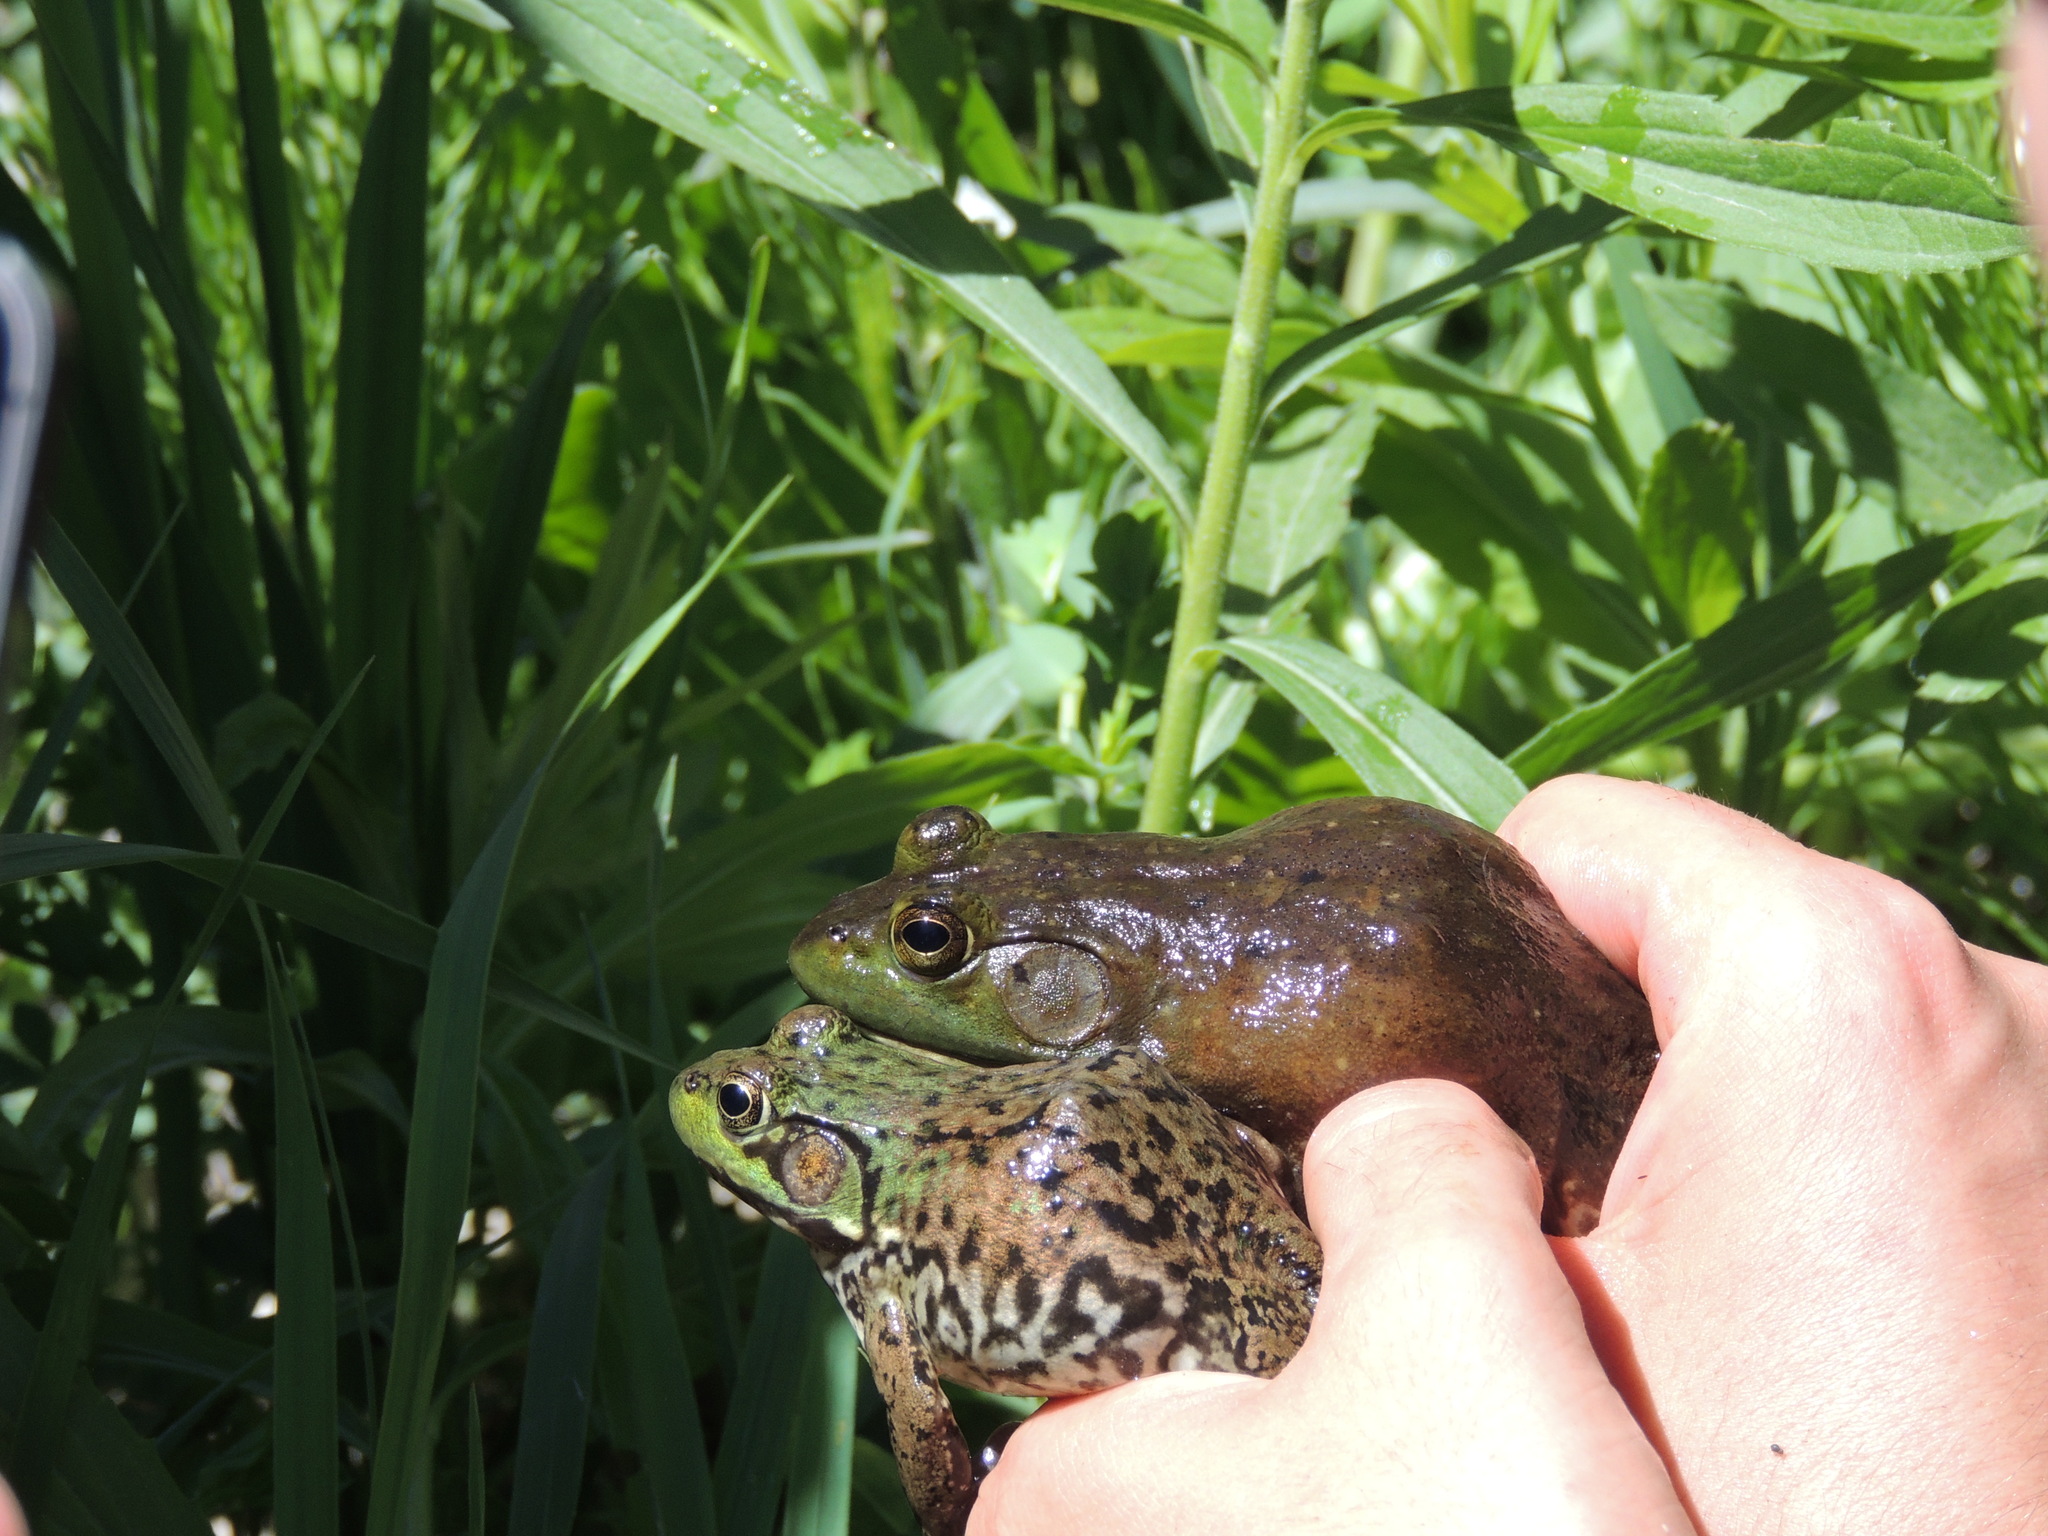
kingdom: Animalia
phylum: Chordata
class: Amphibia
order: Anura
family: Ranidae
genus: Lithobates
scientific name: Lithobates catesbeianus
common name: American bullfrog
